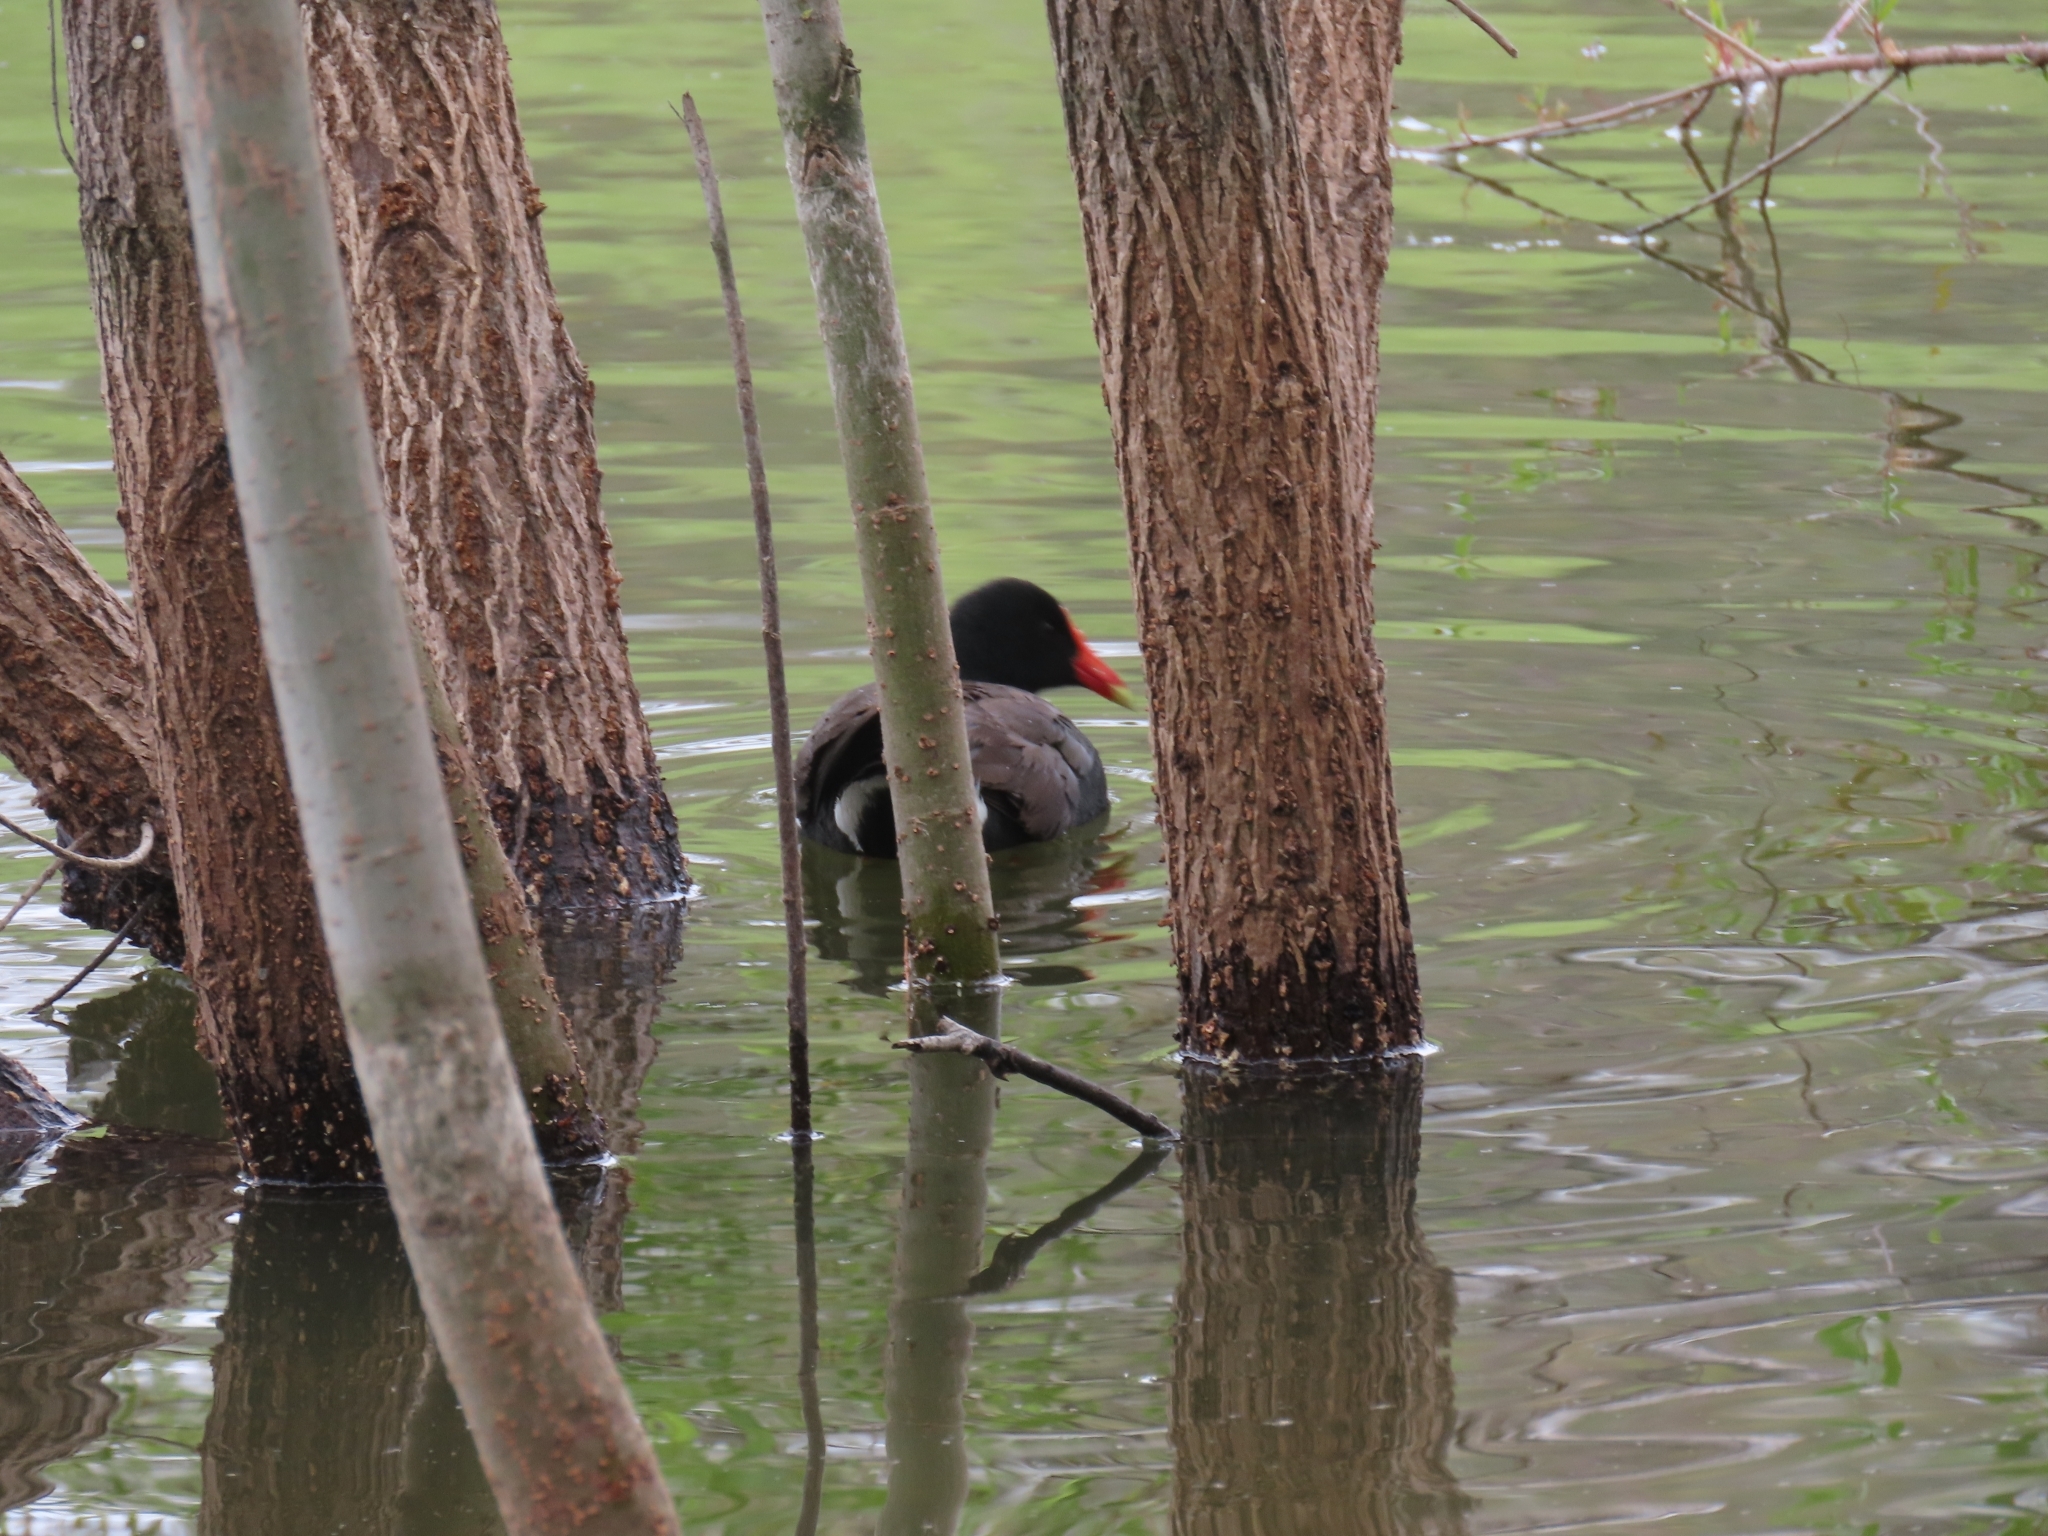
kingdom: Animalia
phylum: Chordata
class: Aves
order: Gruiformes
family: Rallidae
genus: Gallinula
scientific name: Gallinula chloropus
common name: Common moorhen
